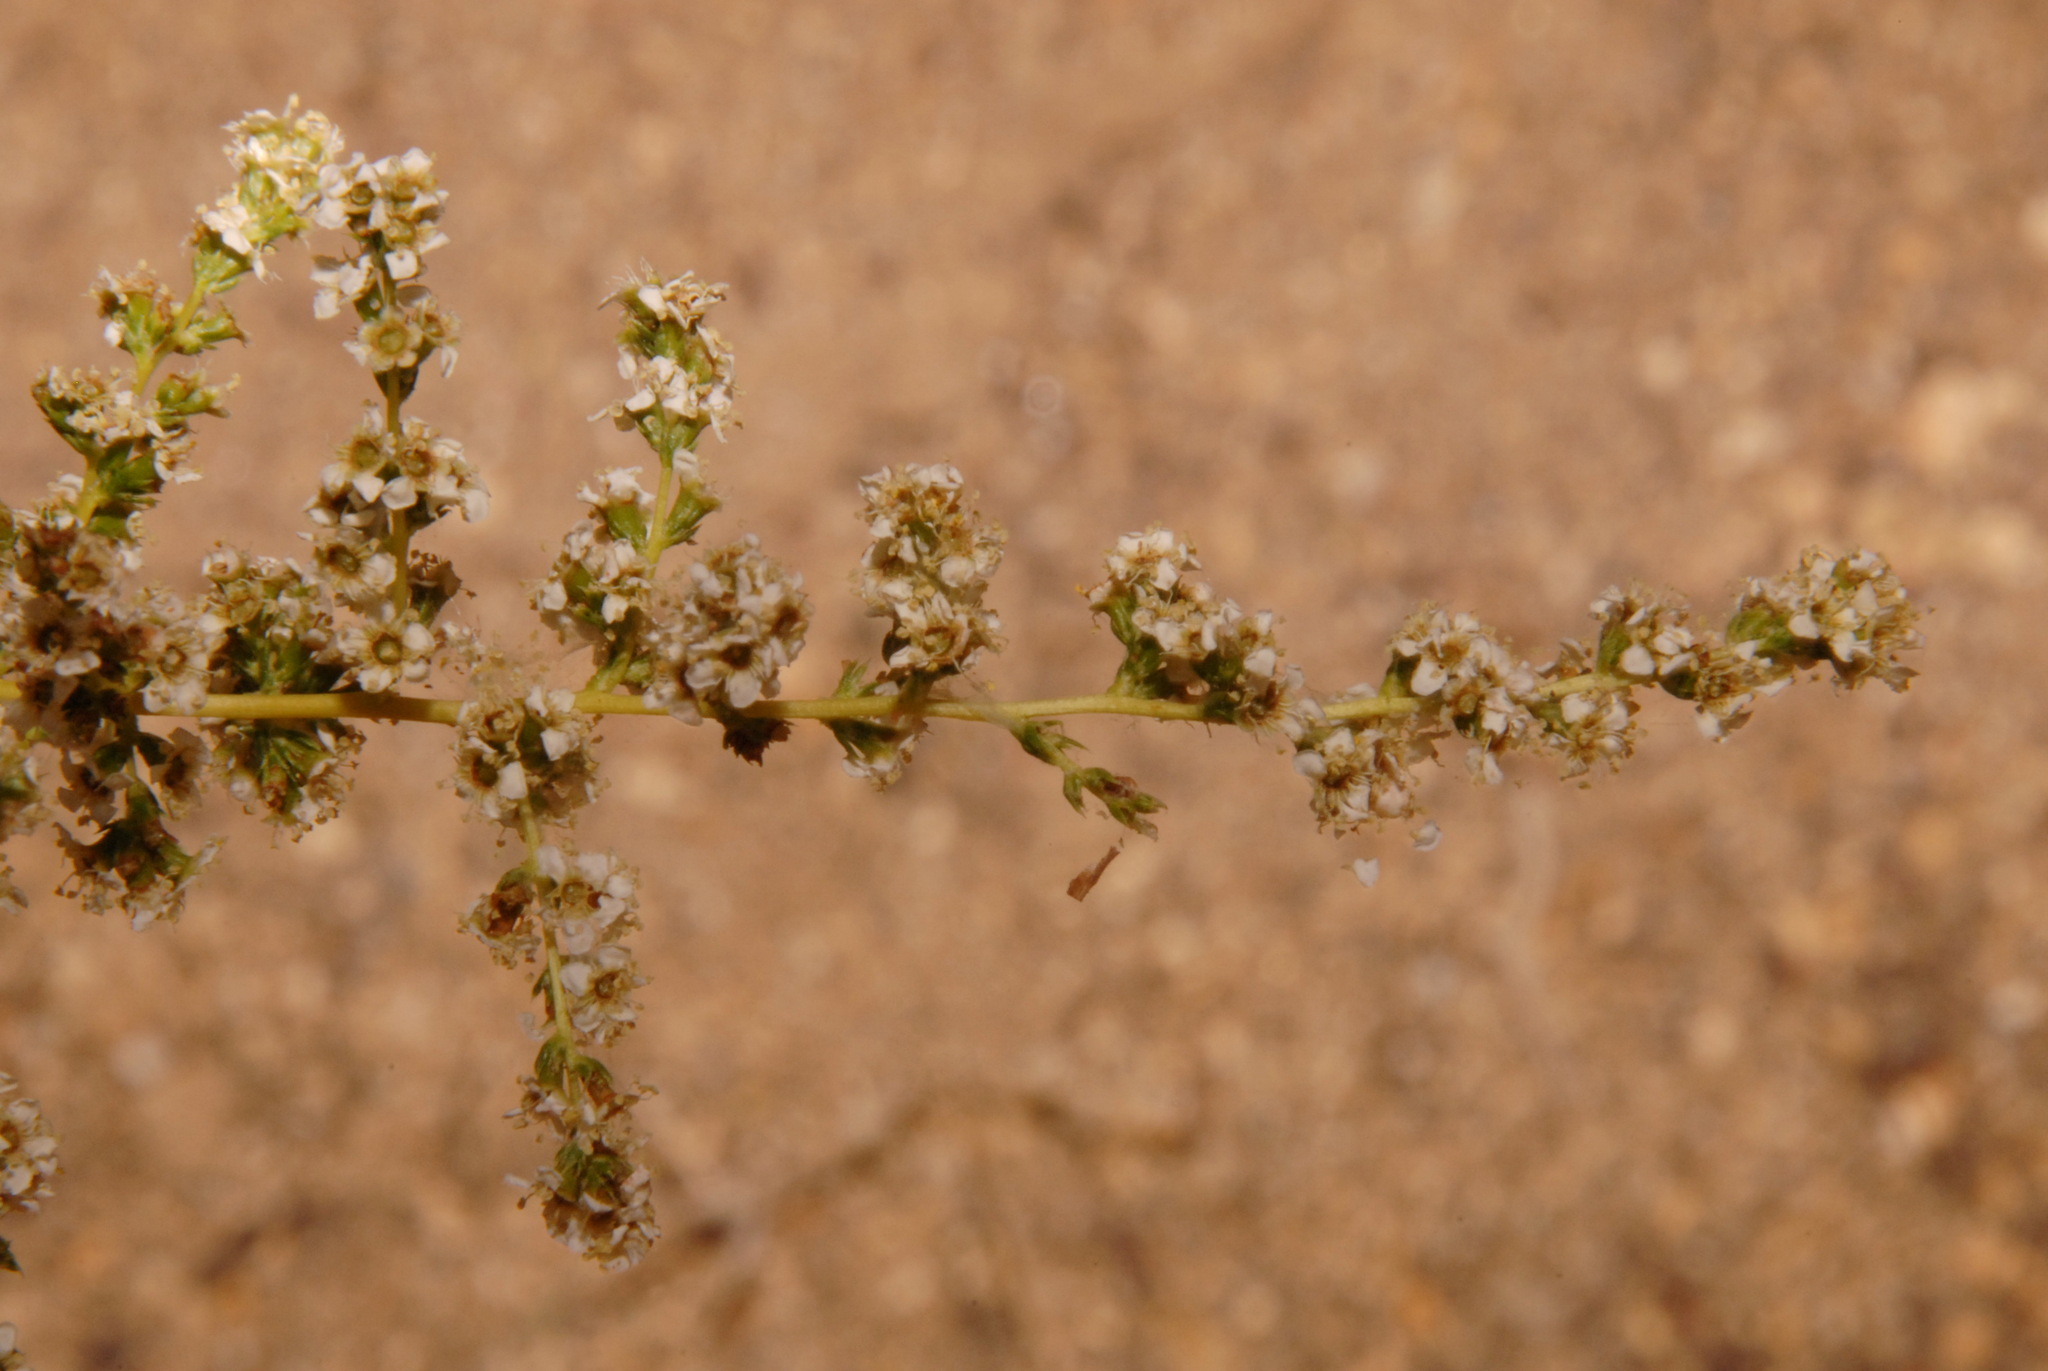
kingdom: Plantae
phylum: Tracheophyta
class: Magnoliopsida
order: Rosales
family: Rosaceae
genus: Adenostoma
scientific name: Adenostoma fasciculatum
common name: Chamise
